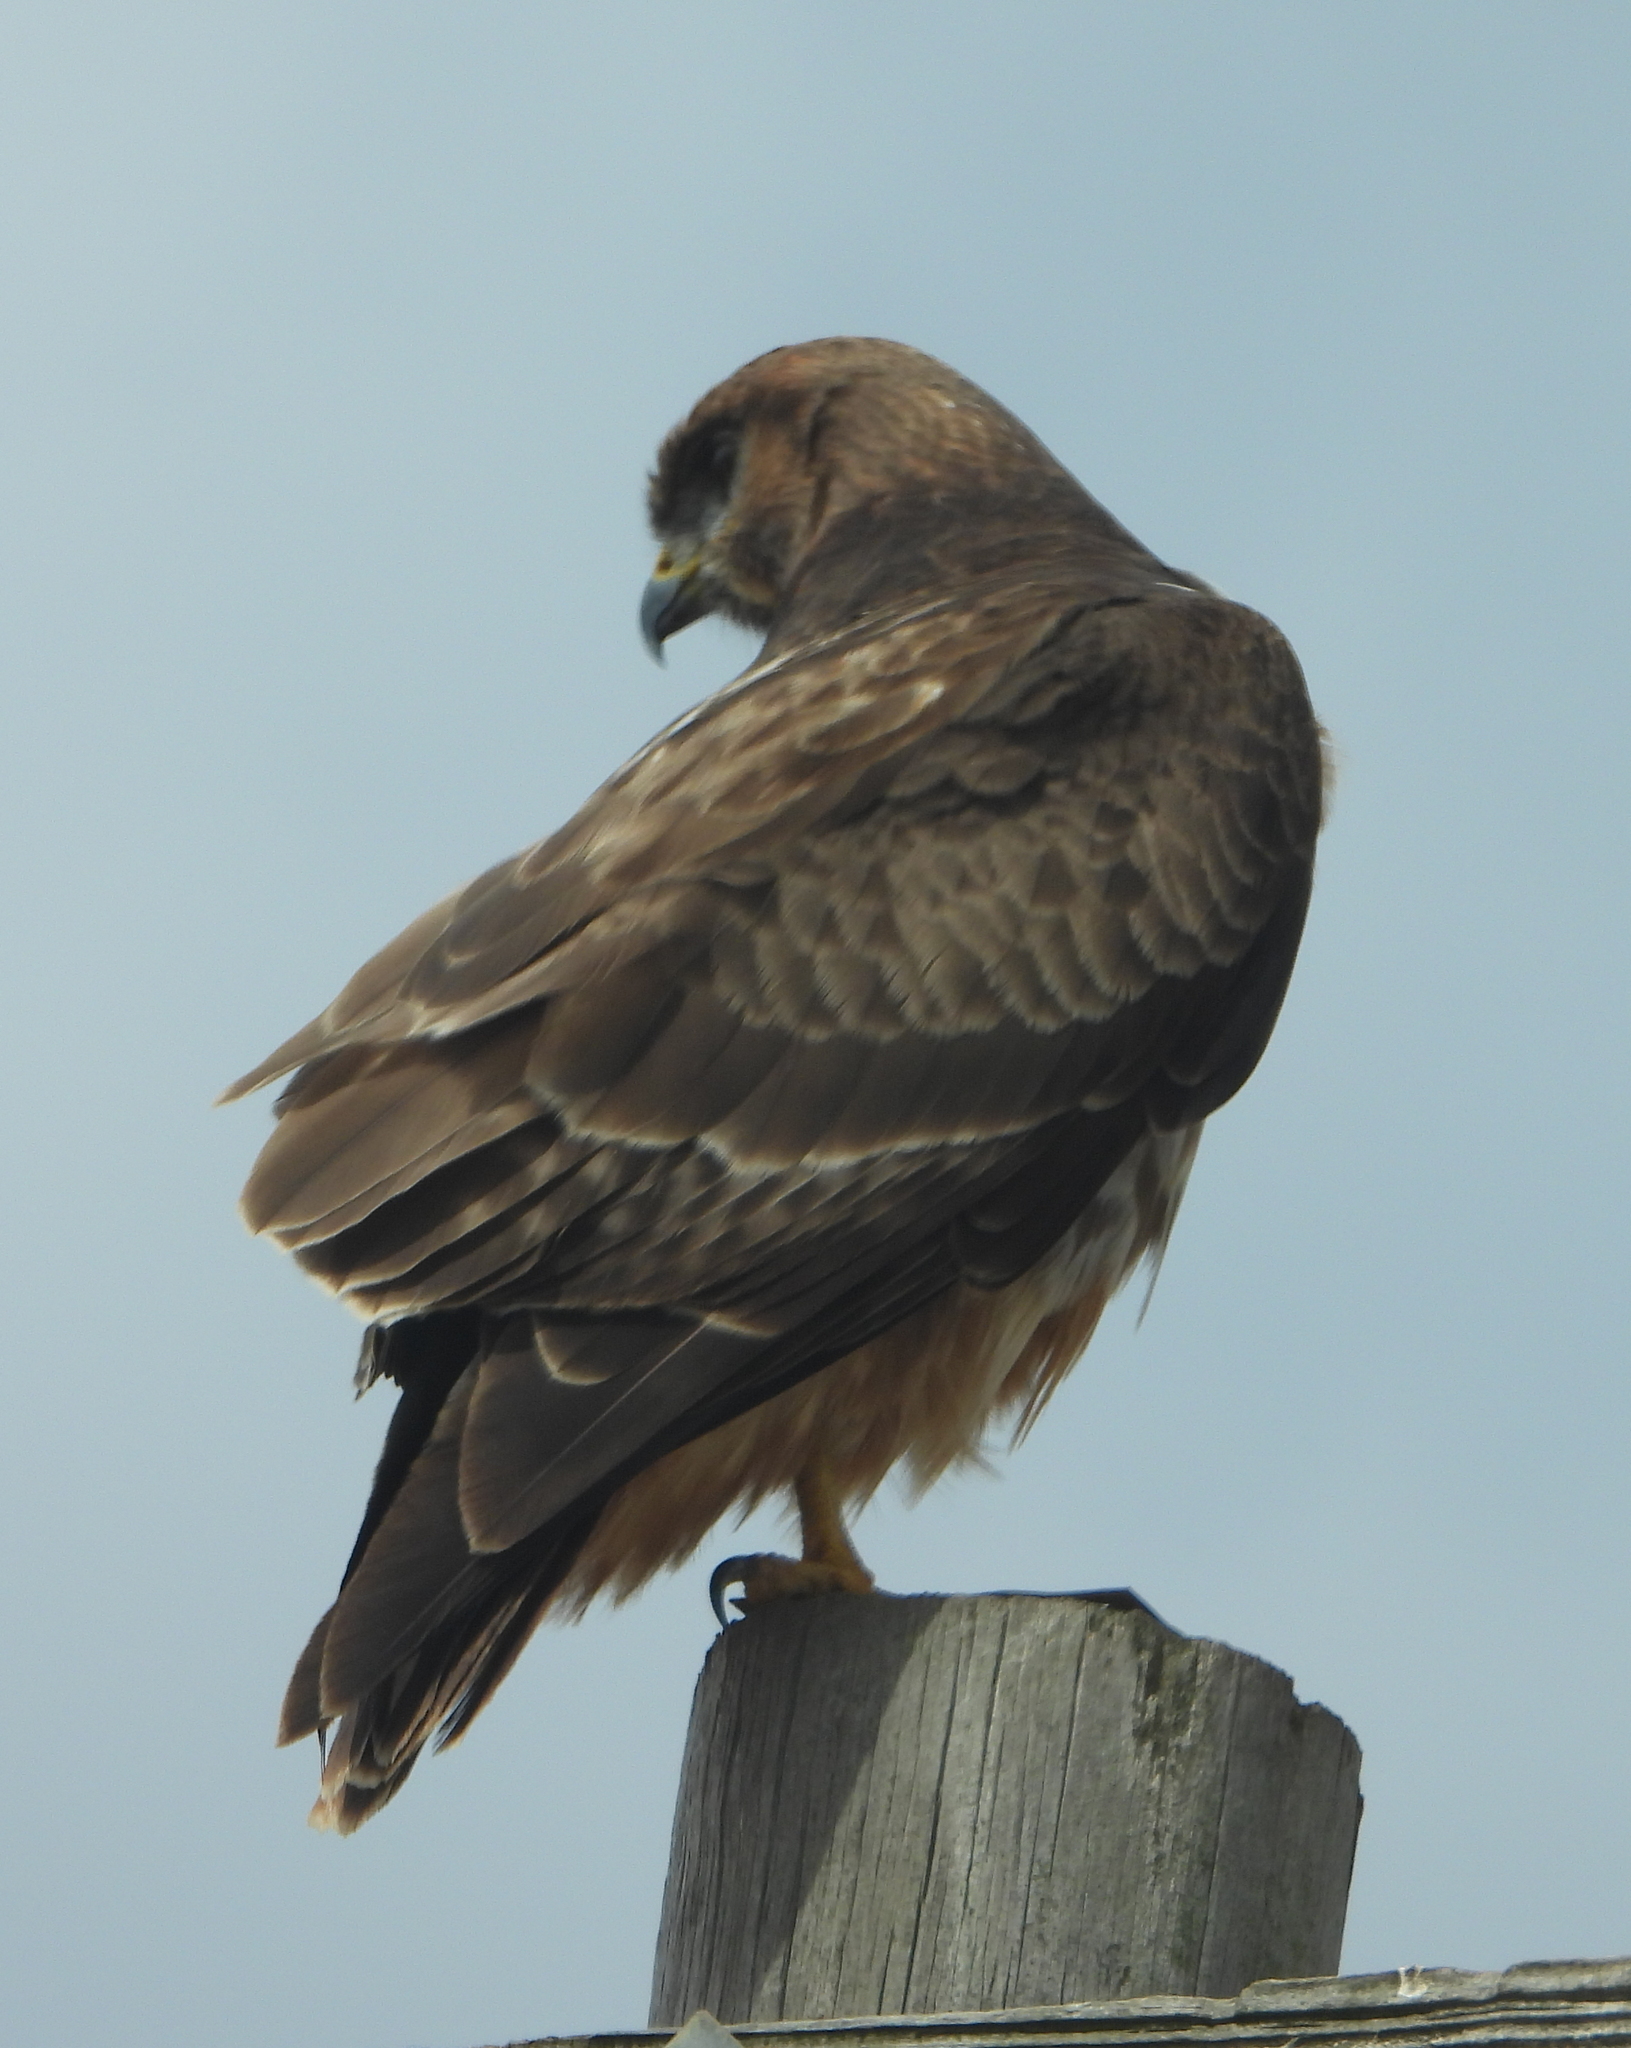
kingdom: Animalia
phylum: Chordata
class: Aves
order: Accipitriformes
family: Accipitridae
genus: Buteo
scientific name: Buteo buteo
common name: Common buzzard
